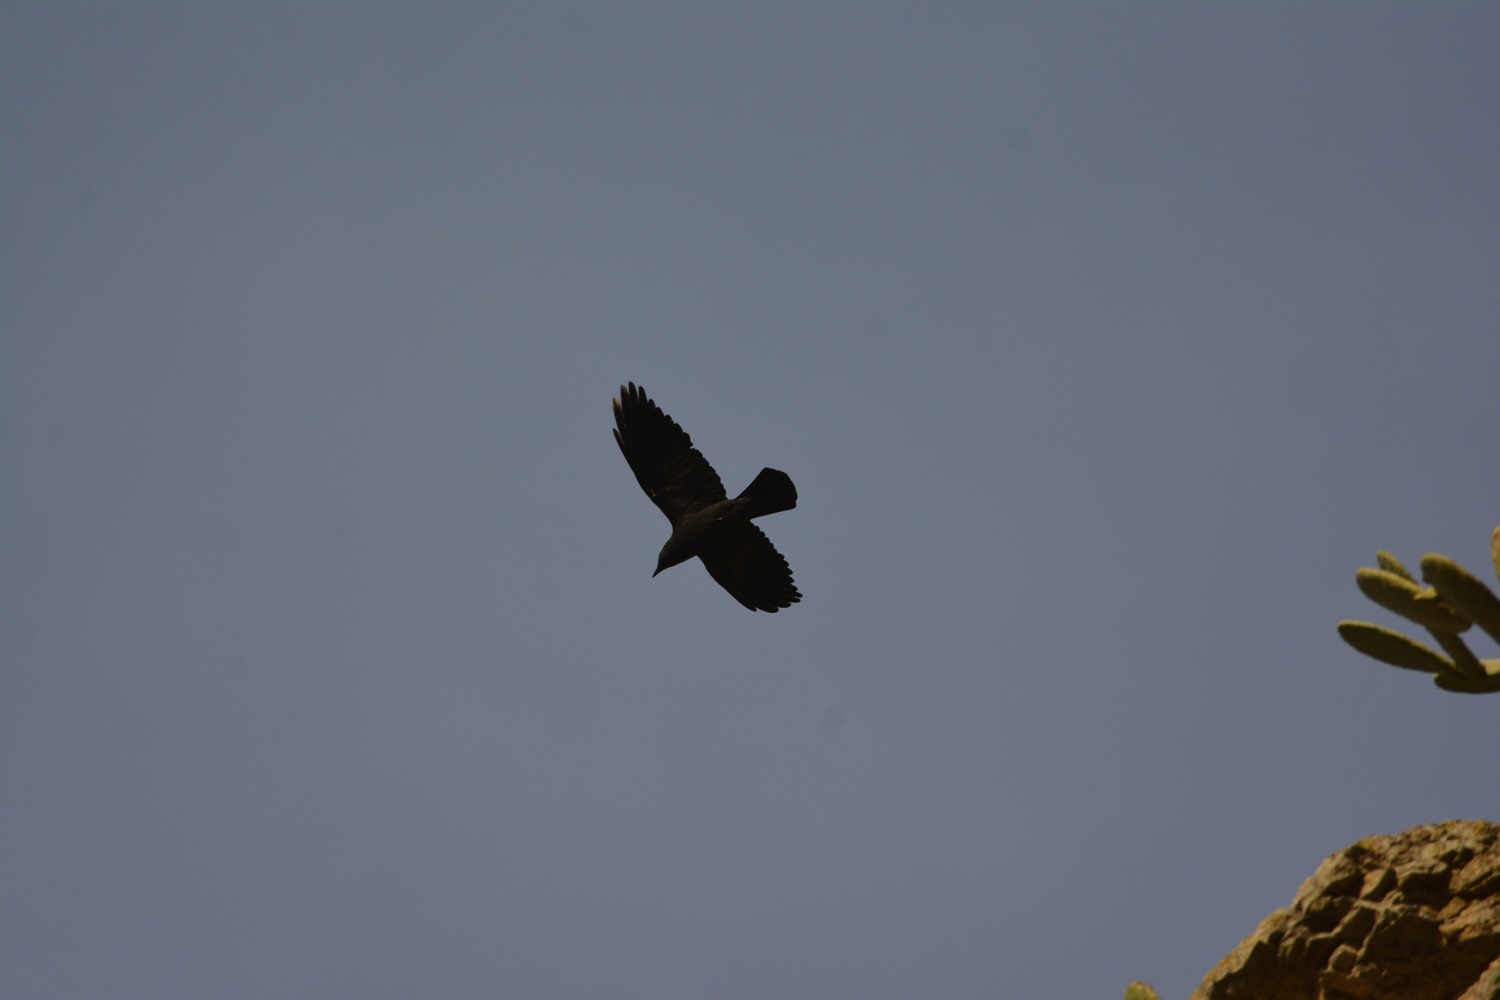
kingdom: Animalia
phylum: Chordata
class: Aves
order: Passeriformes
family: Corvidae
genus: Coloeus
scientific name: Coloeus monedula
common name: Western jackdaw
